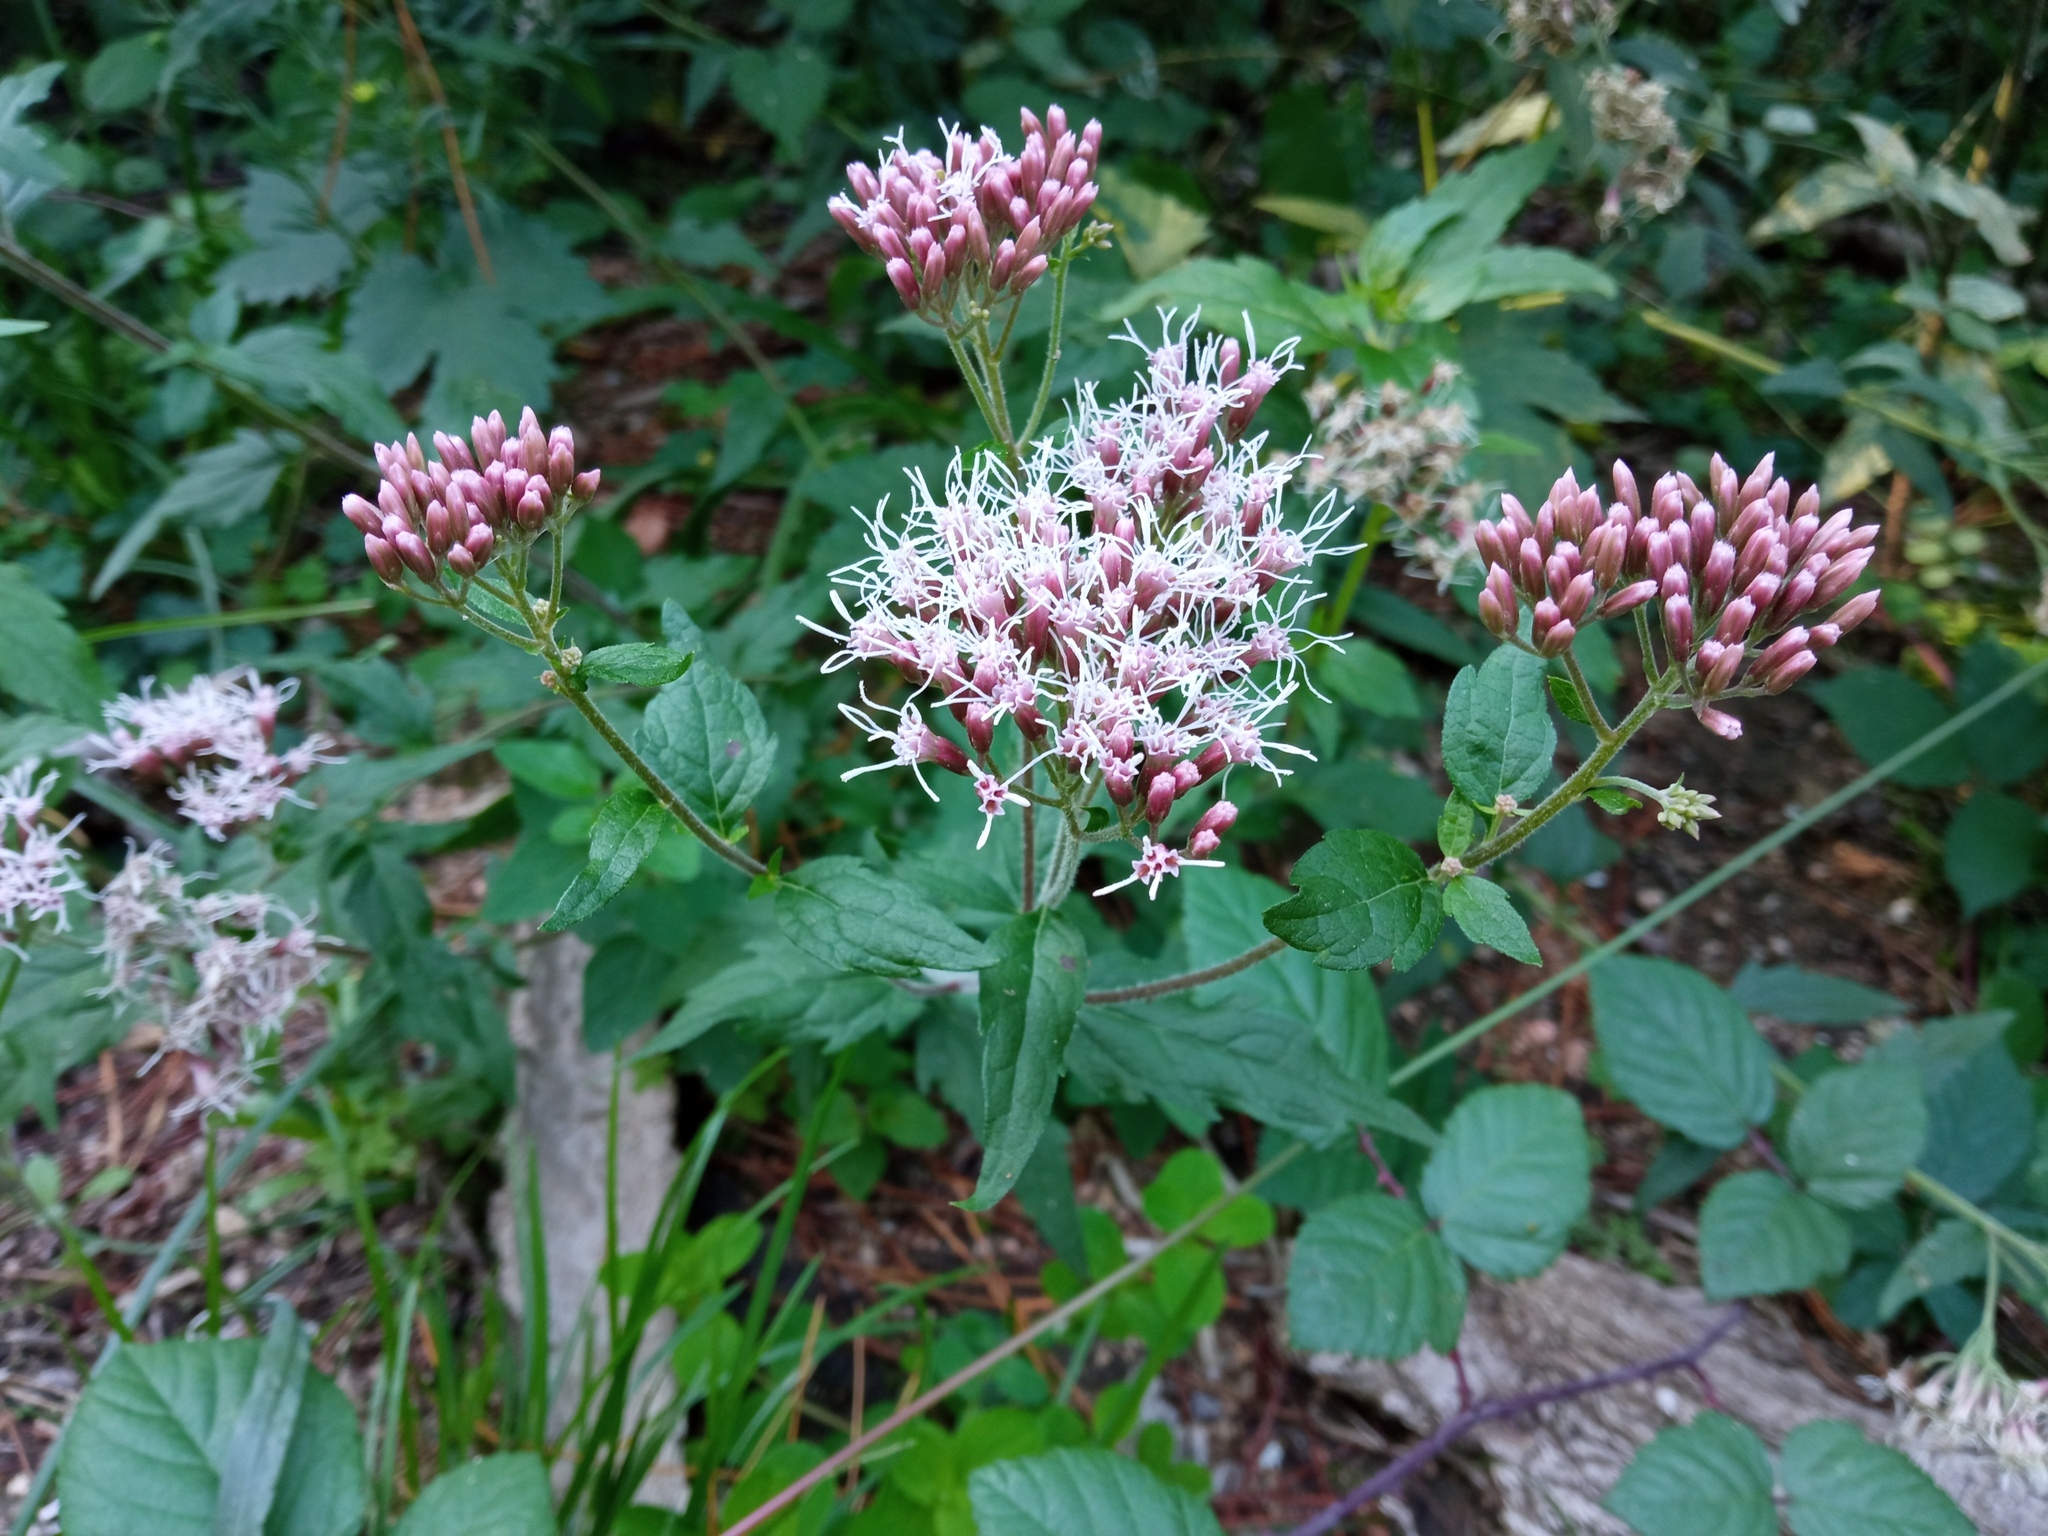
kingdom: Plantae
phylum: Tracheophyta
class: Magnoliopsida
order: Asterales
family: Asteraceae
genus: Eupatorium
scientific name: Eupatorium cannabinum
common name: Hemp-agrimony
